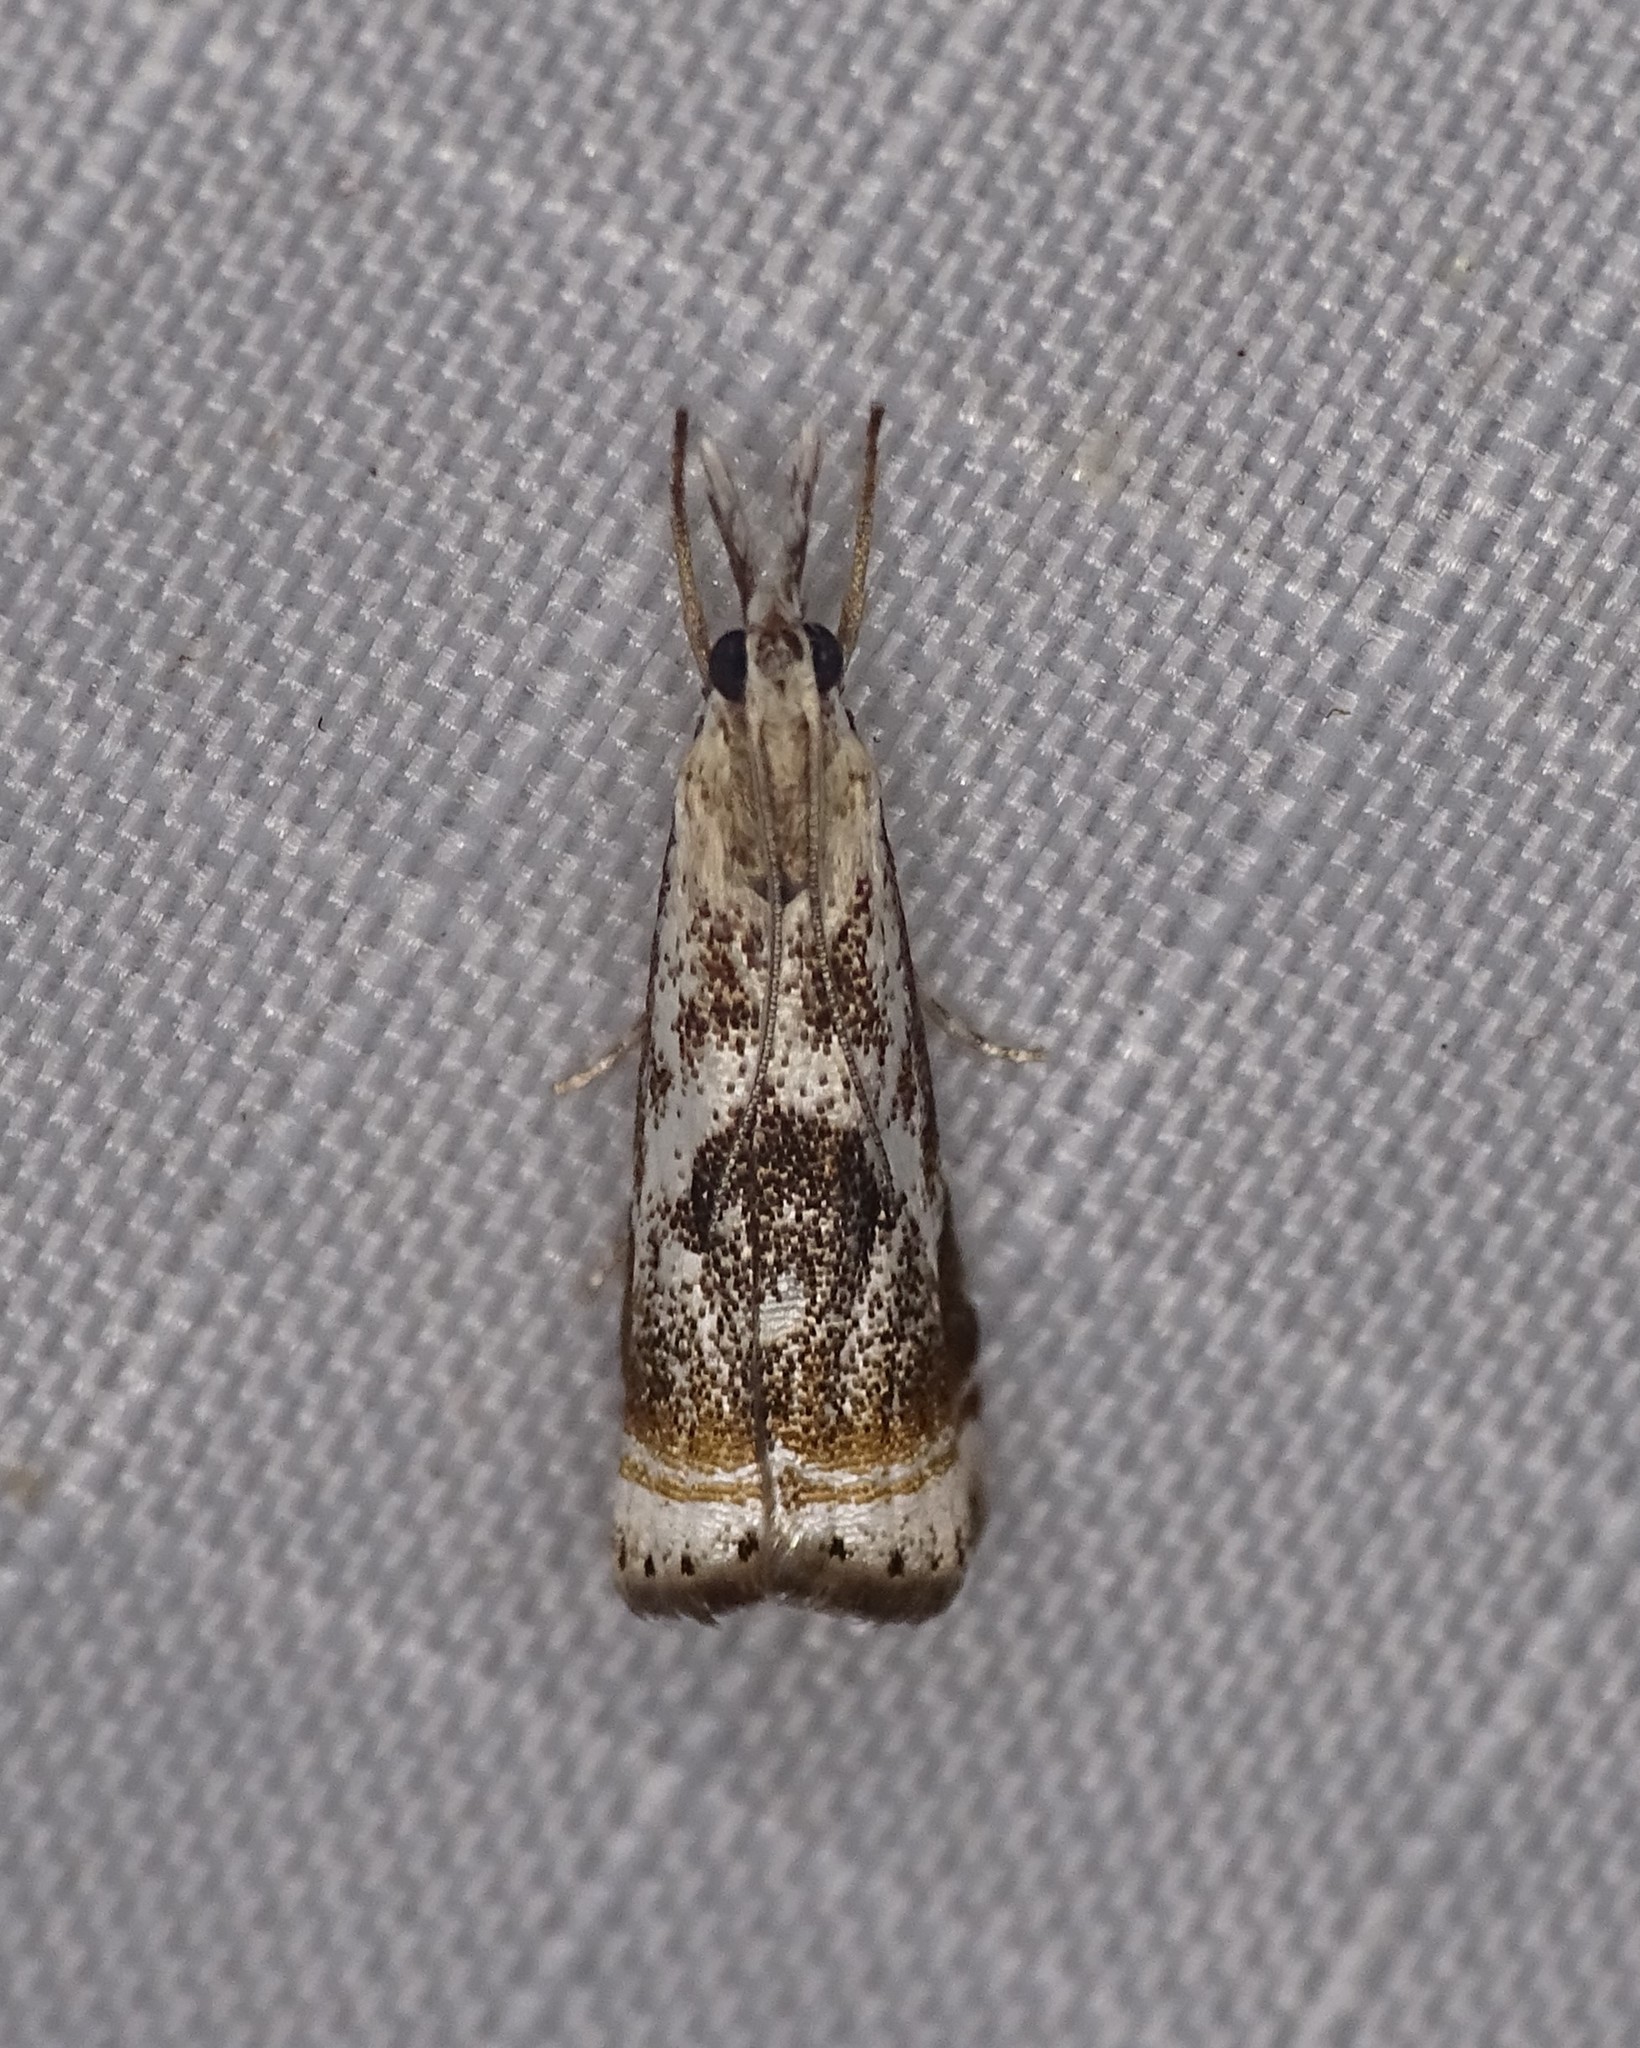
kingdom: Animalia
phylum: Arthropoda
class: Insecta
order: Lepidoptera
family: Crambidae
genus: Microcrambus
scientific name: Microcrambus elegans
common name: Elegant grass-veneer
